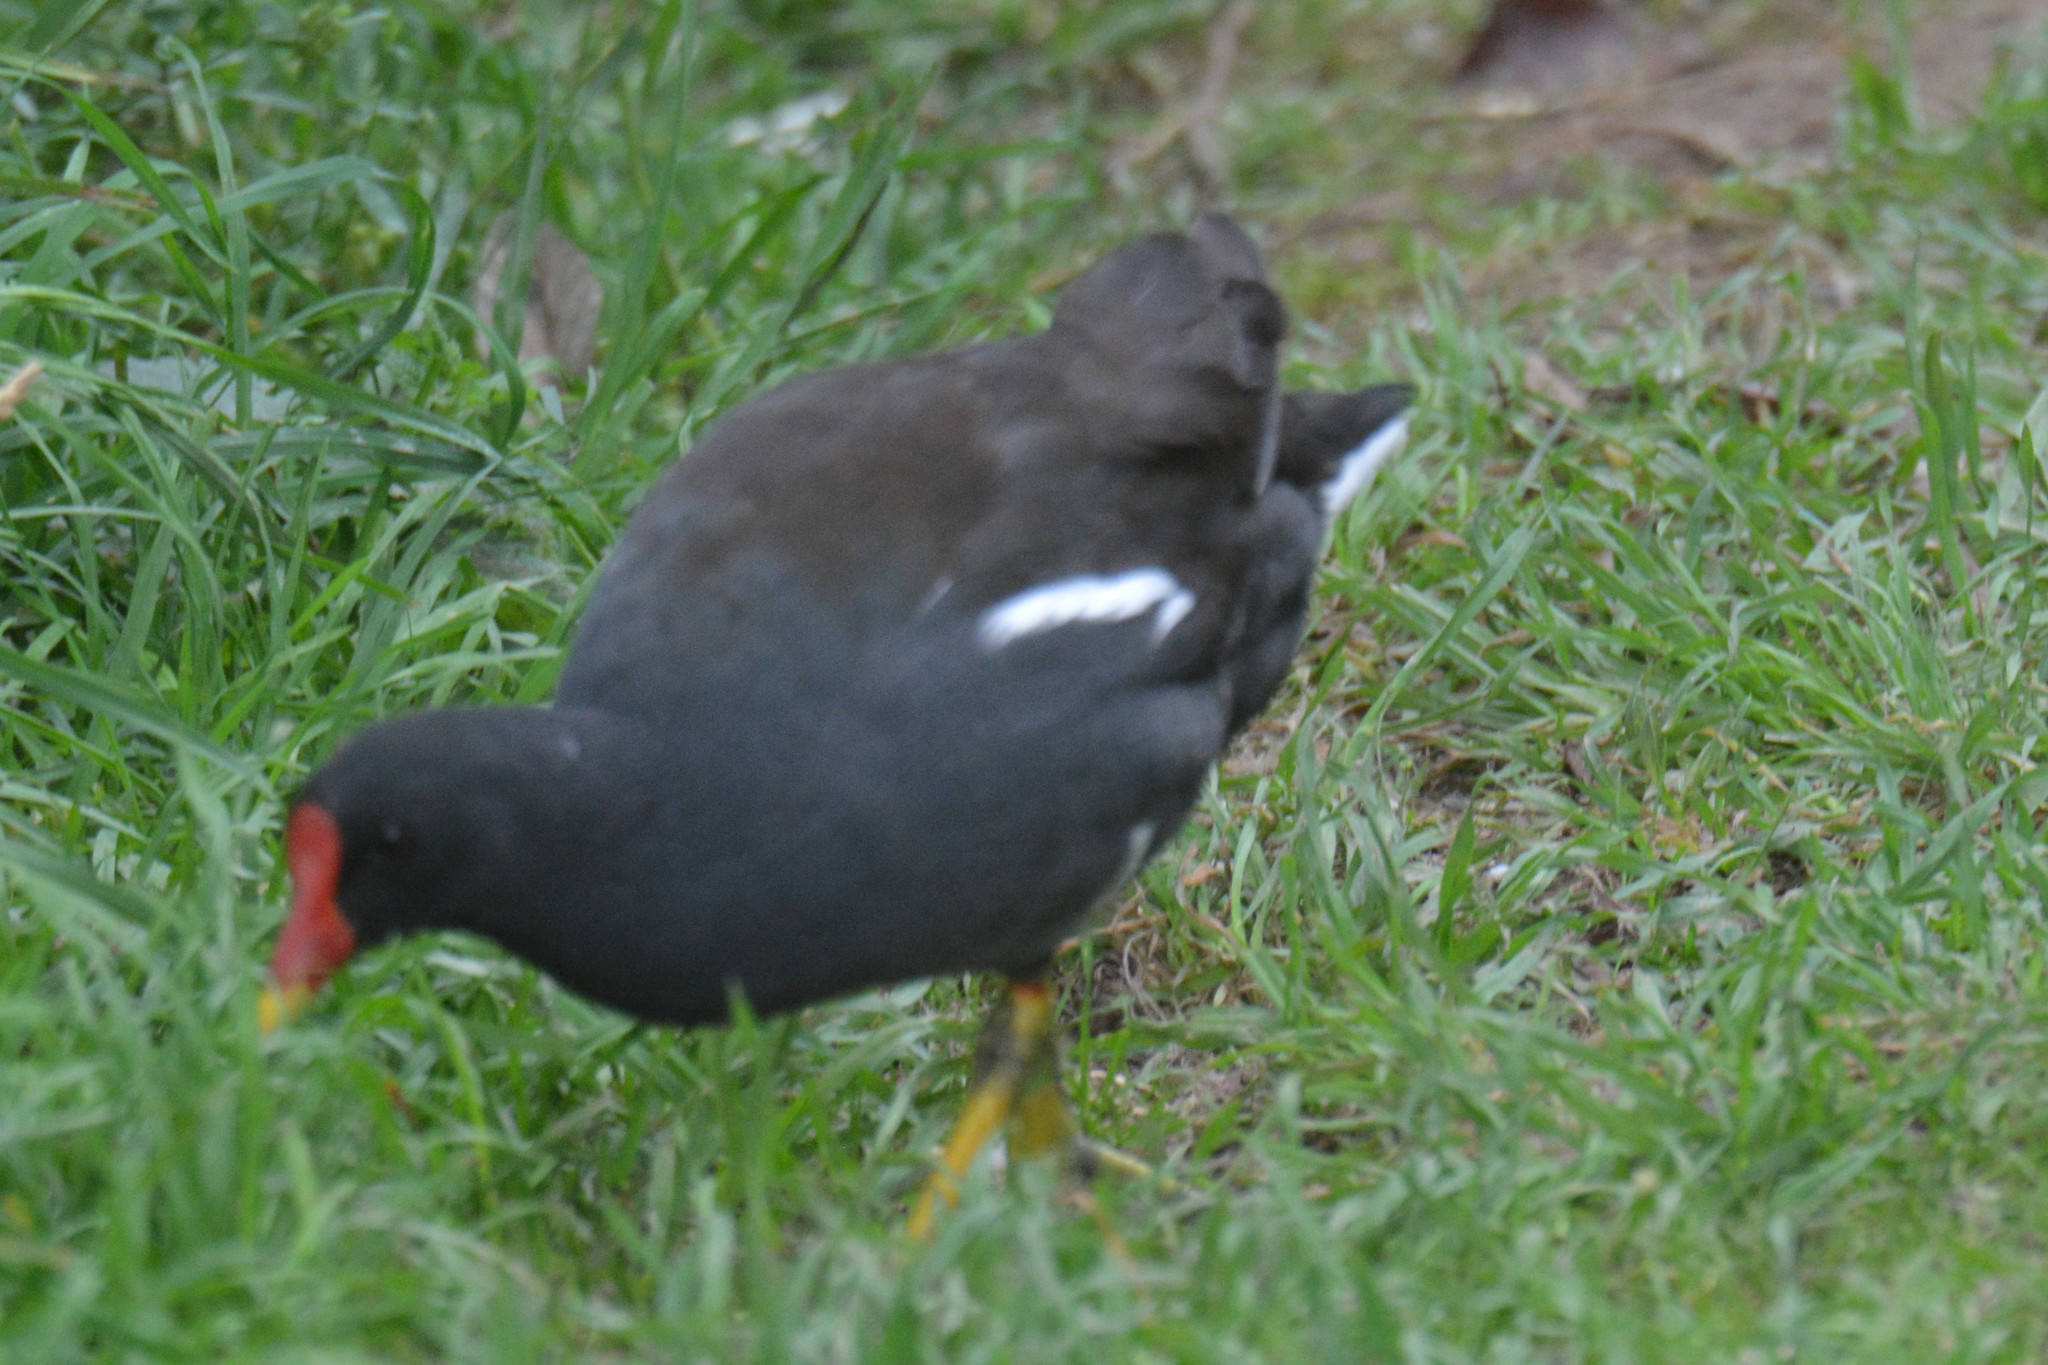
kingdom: Animalia
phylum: Chordata
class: Aves
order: Gruiformes
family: Rallidae
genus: Gallinula
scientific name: Gallinula chloropus
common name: Common moorhen
